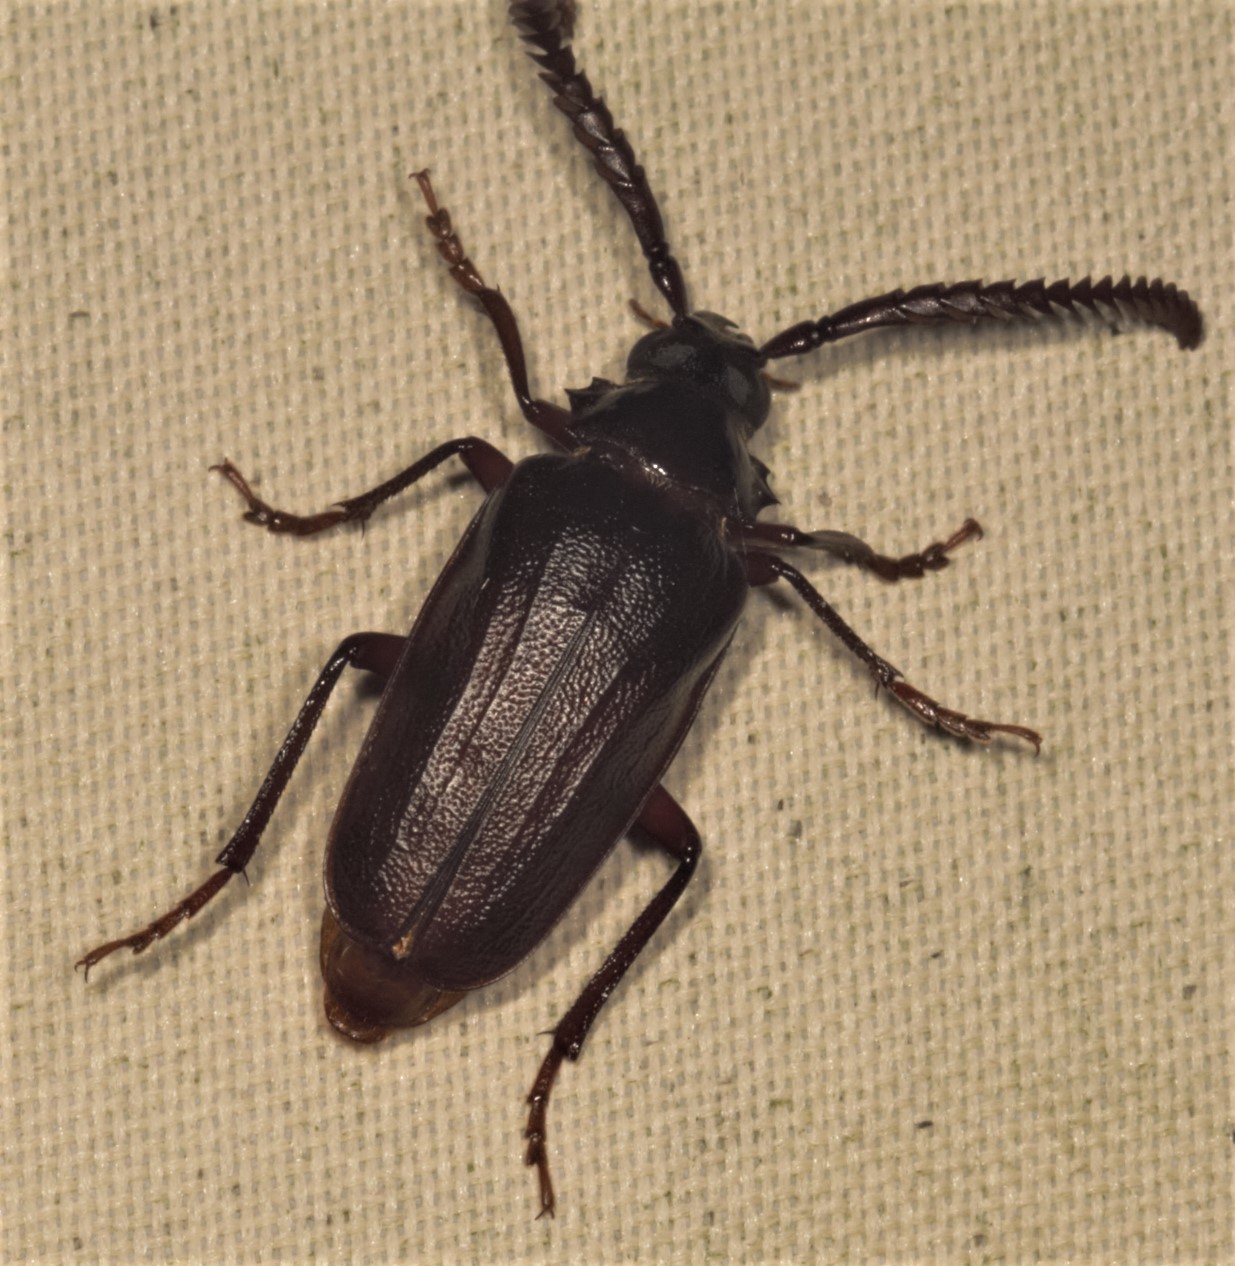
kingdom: Animalia
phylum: Arthropoda
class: Insecta
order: Coleoptera
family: Cerambycidae
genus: Prionus
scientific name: Prionus imbricornis
